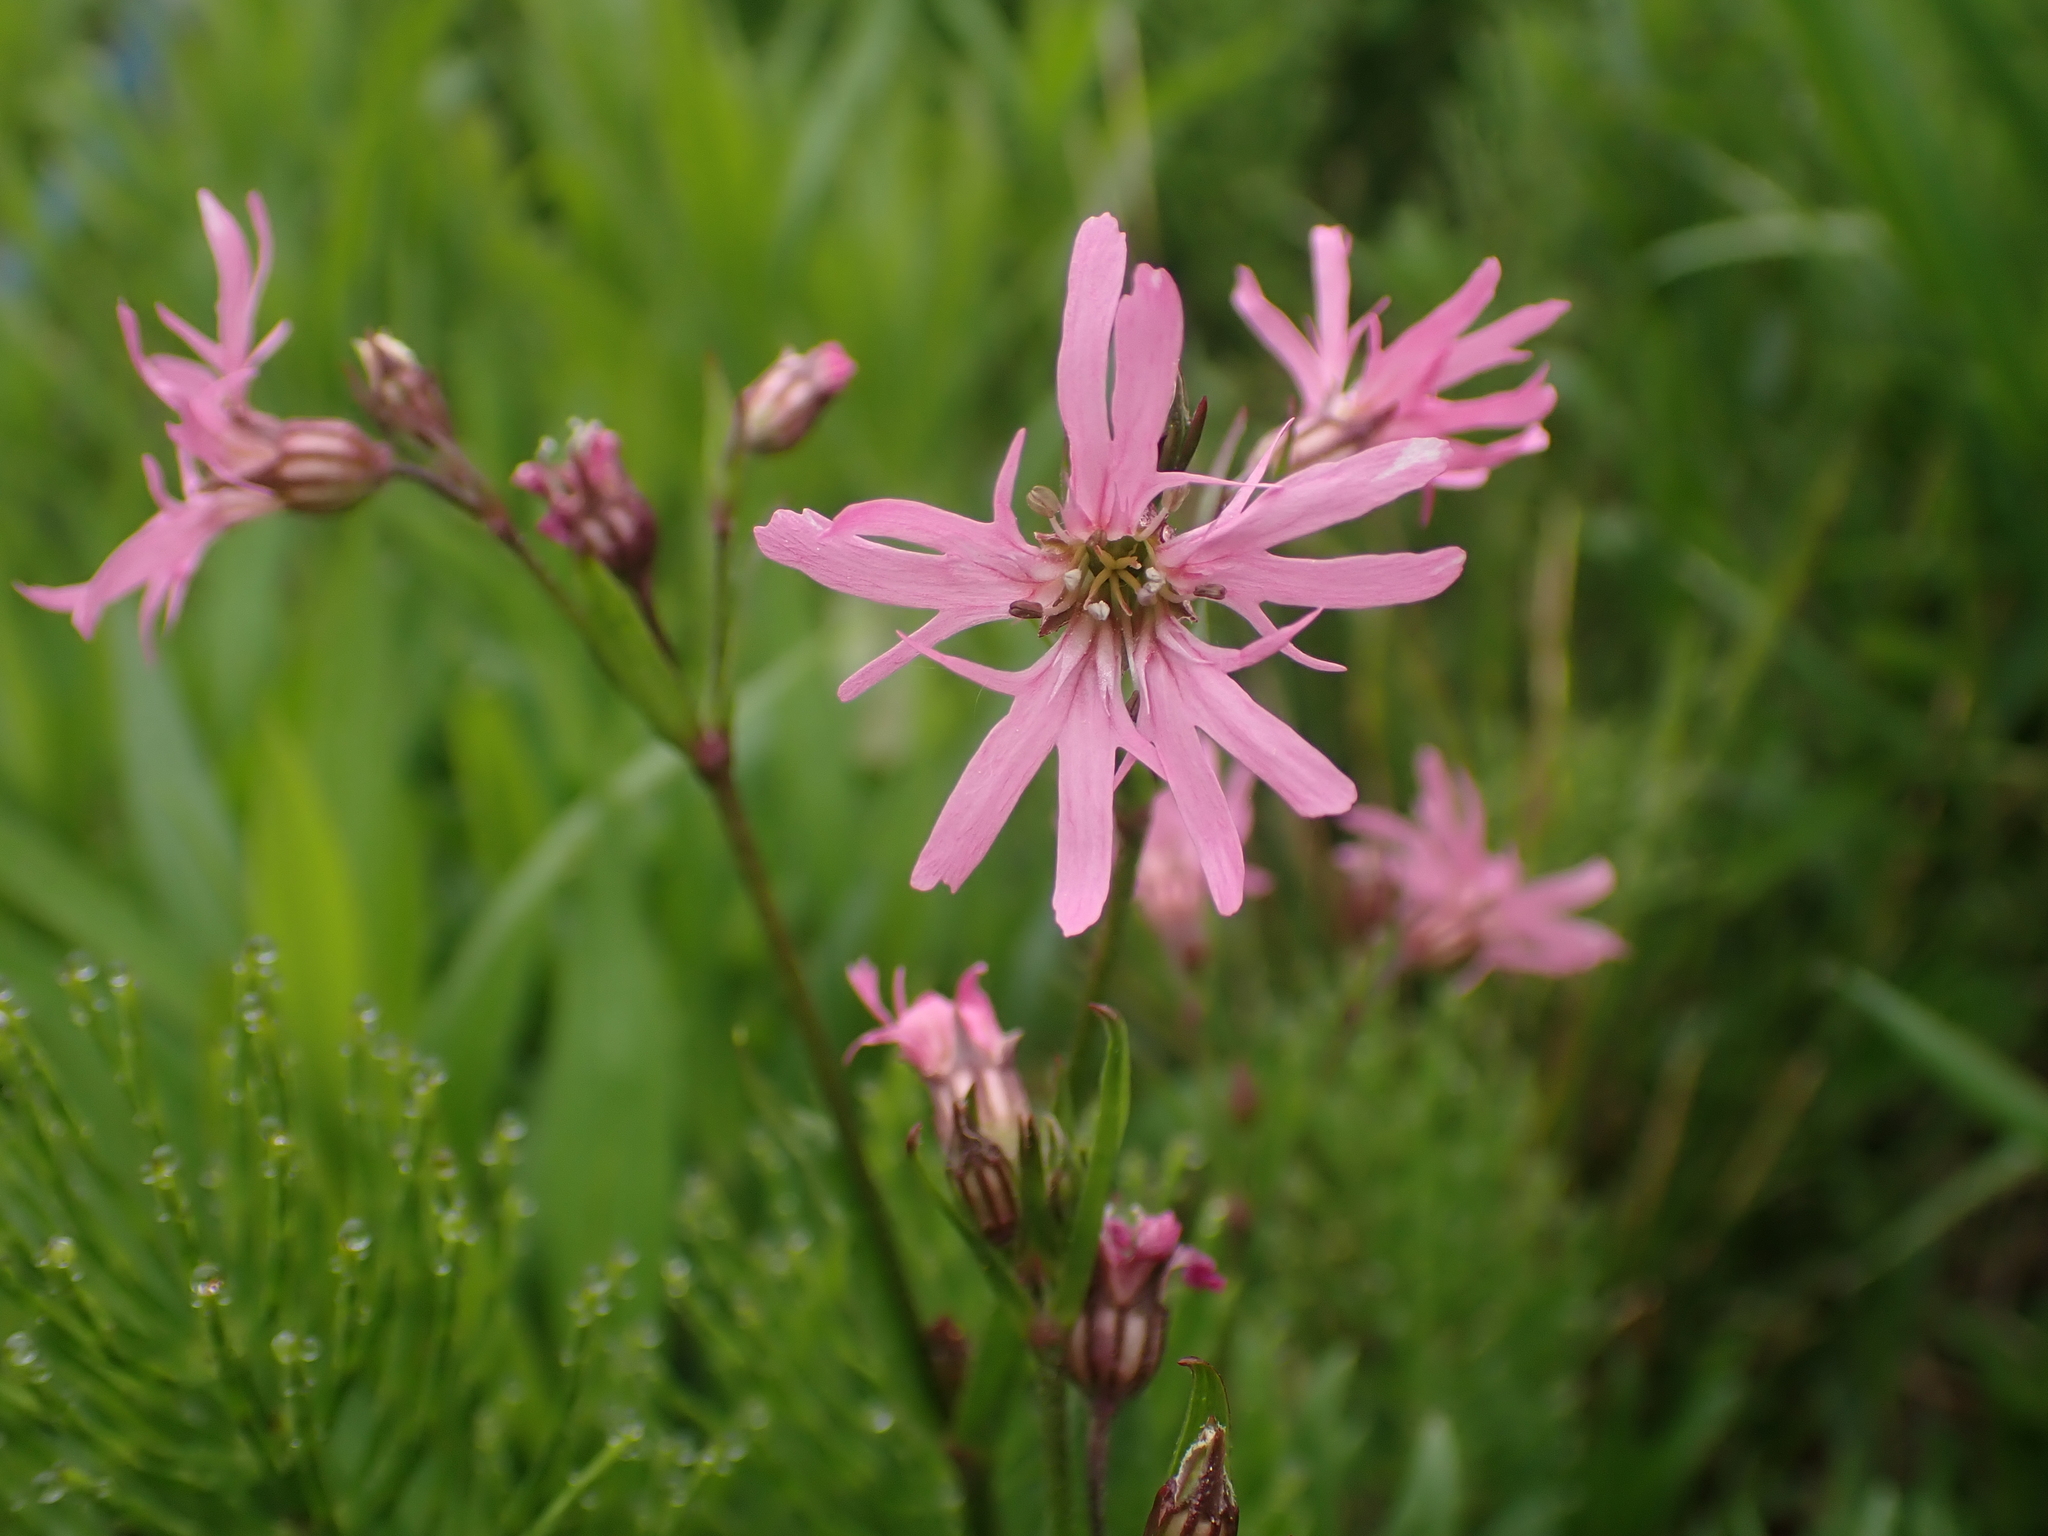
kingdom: Plantae
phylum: Tracheophyta
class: Magnoliopsida
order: Caryophyllales
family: Caryophyllaceae
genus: Silene
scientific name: Silene flos-cuculi
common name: Ragged-robin
